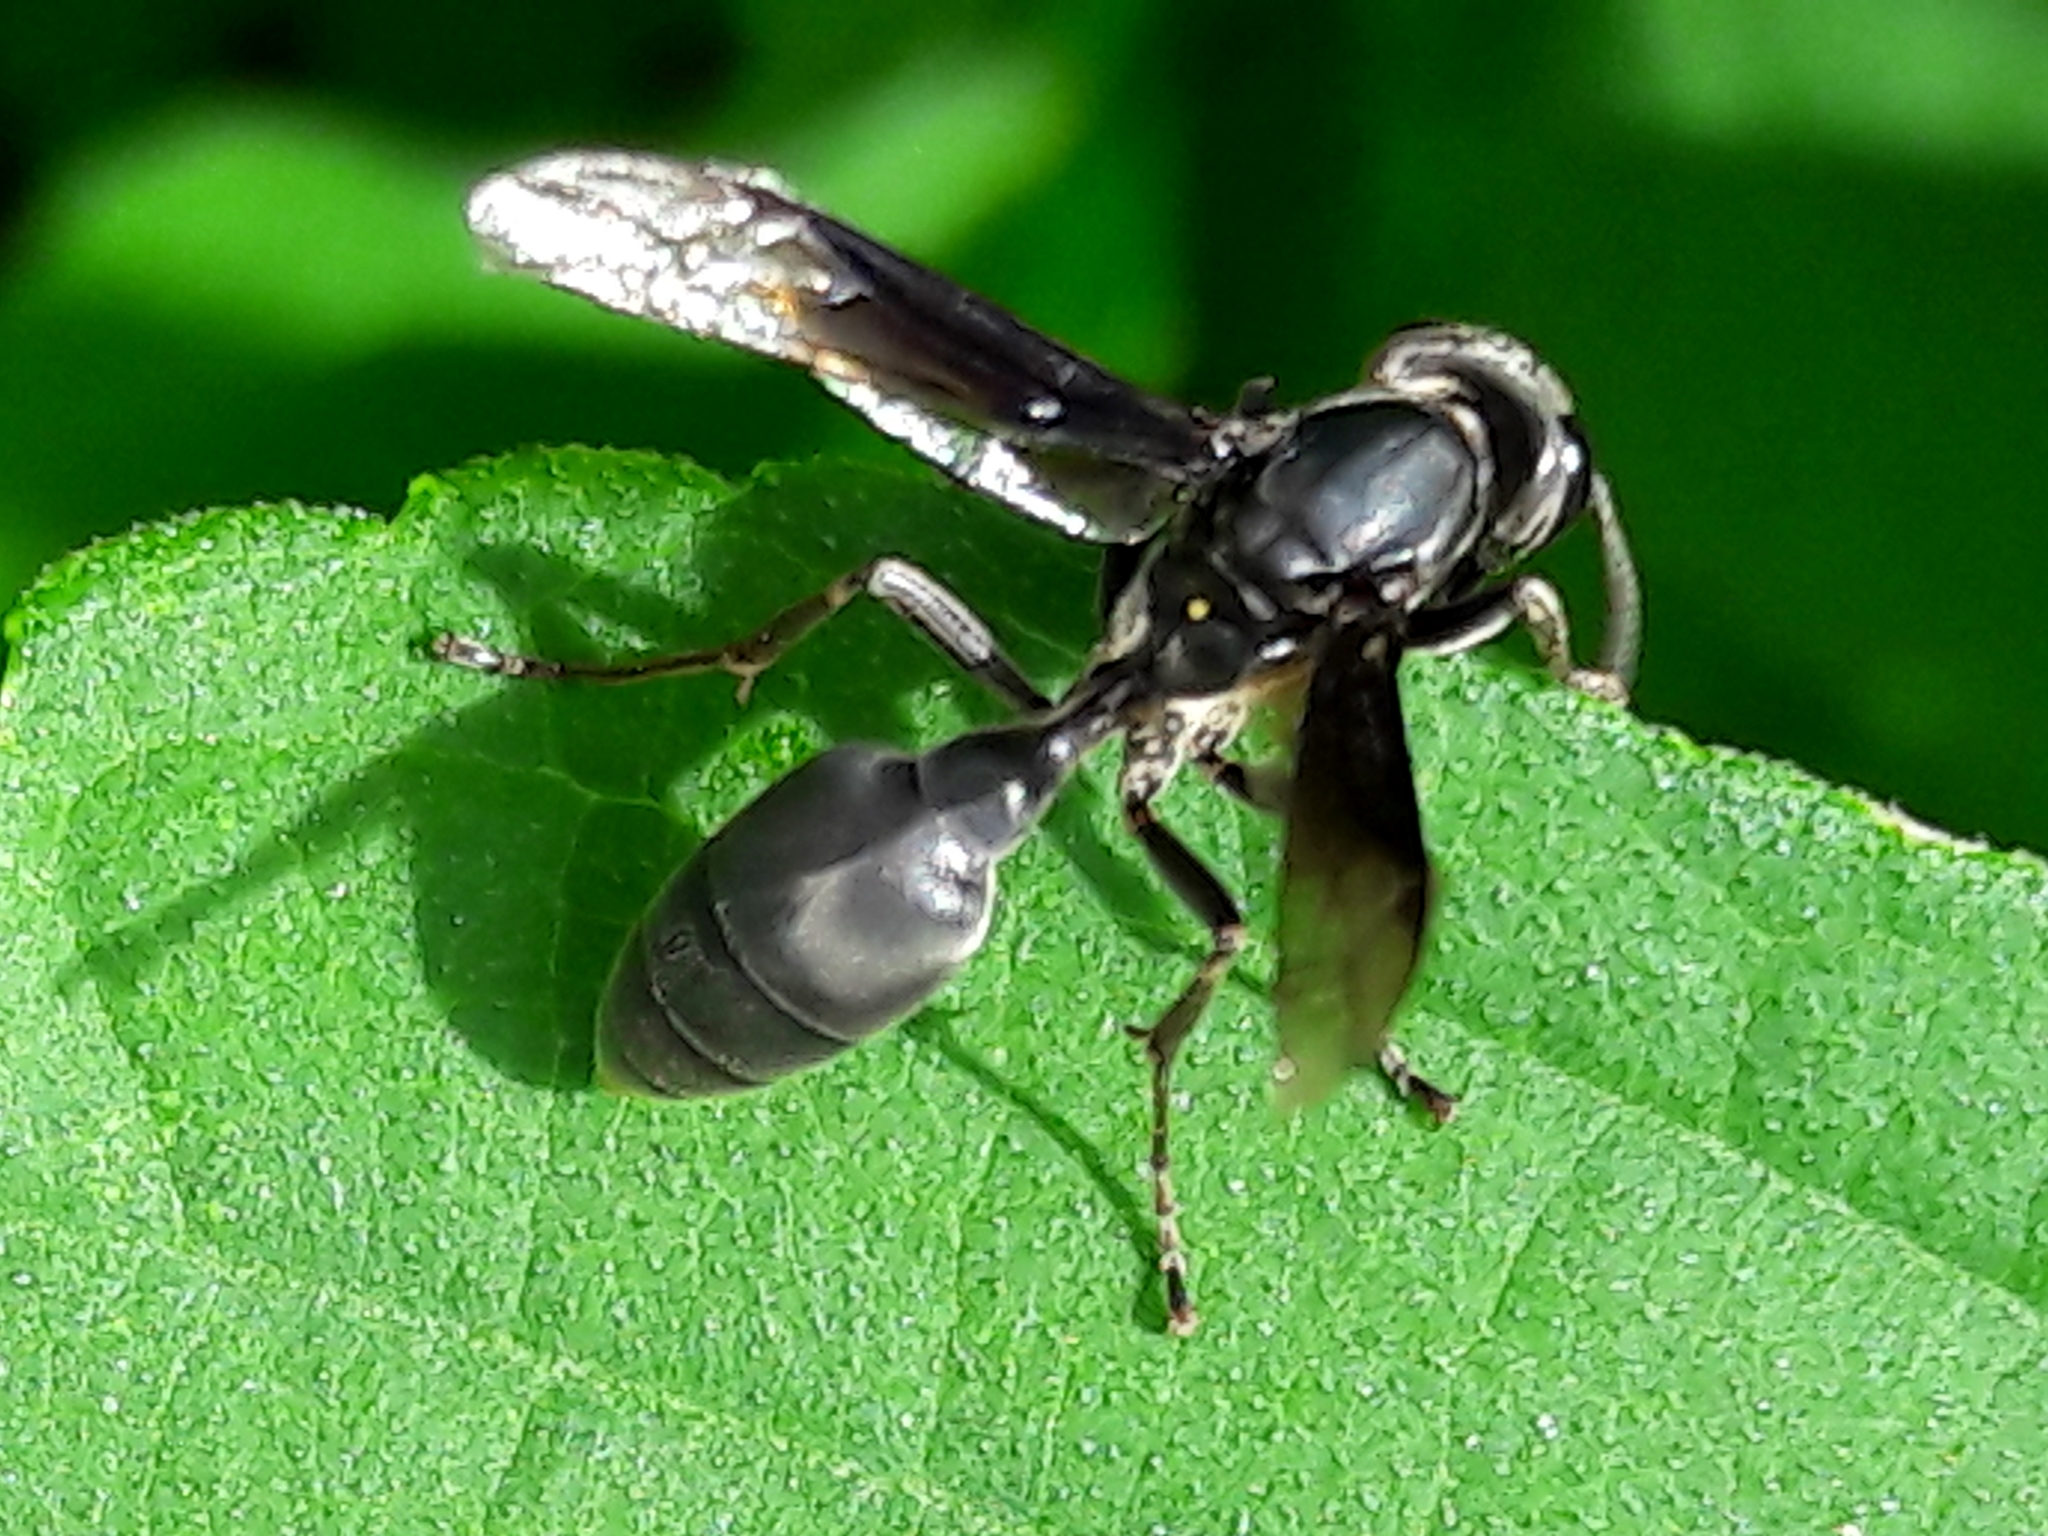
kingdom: Animalia
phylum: Arthropoda
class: Insecta
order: Hymenoptera
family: Eumenidae
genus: Polybia
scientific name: Polybia ignobilis
